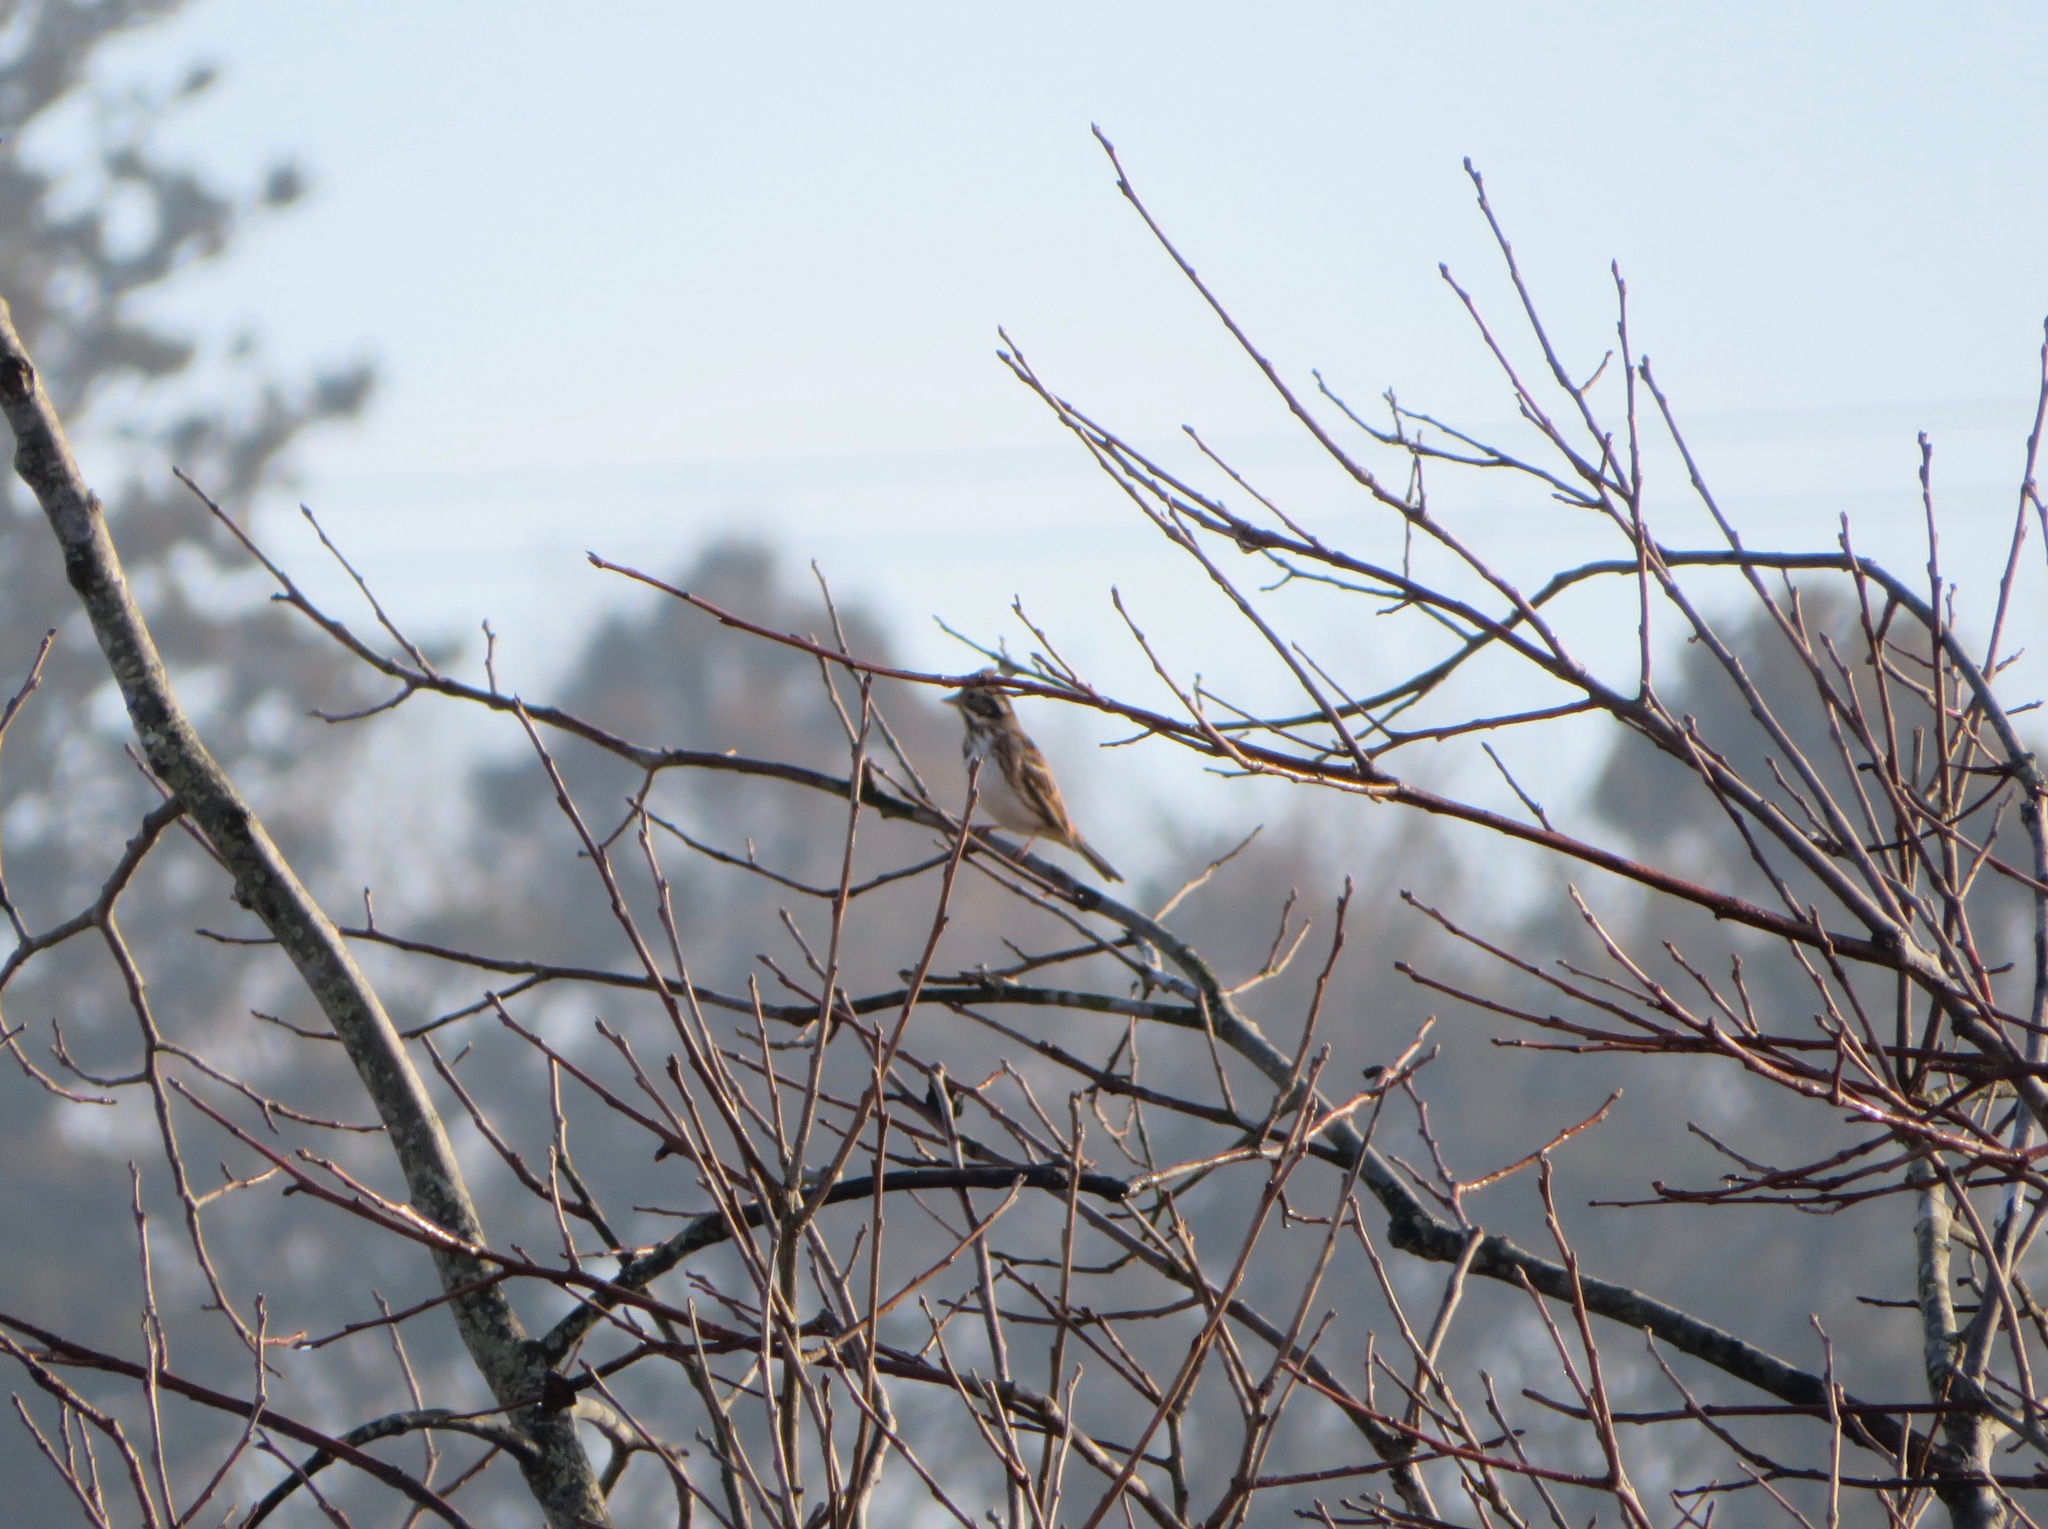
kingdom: Animalia
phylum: Chordata
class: Aves
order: Passeriformes
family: Emberizidae
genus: Emberiza
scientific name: Emberiza rustica
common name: Rustic bunting
